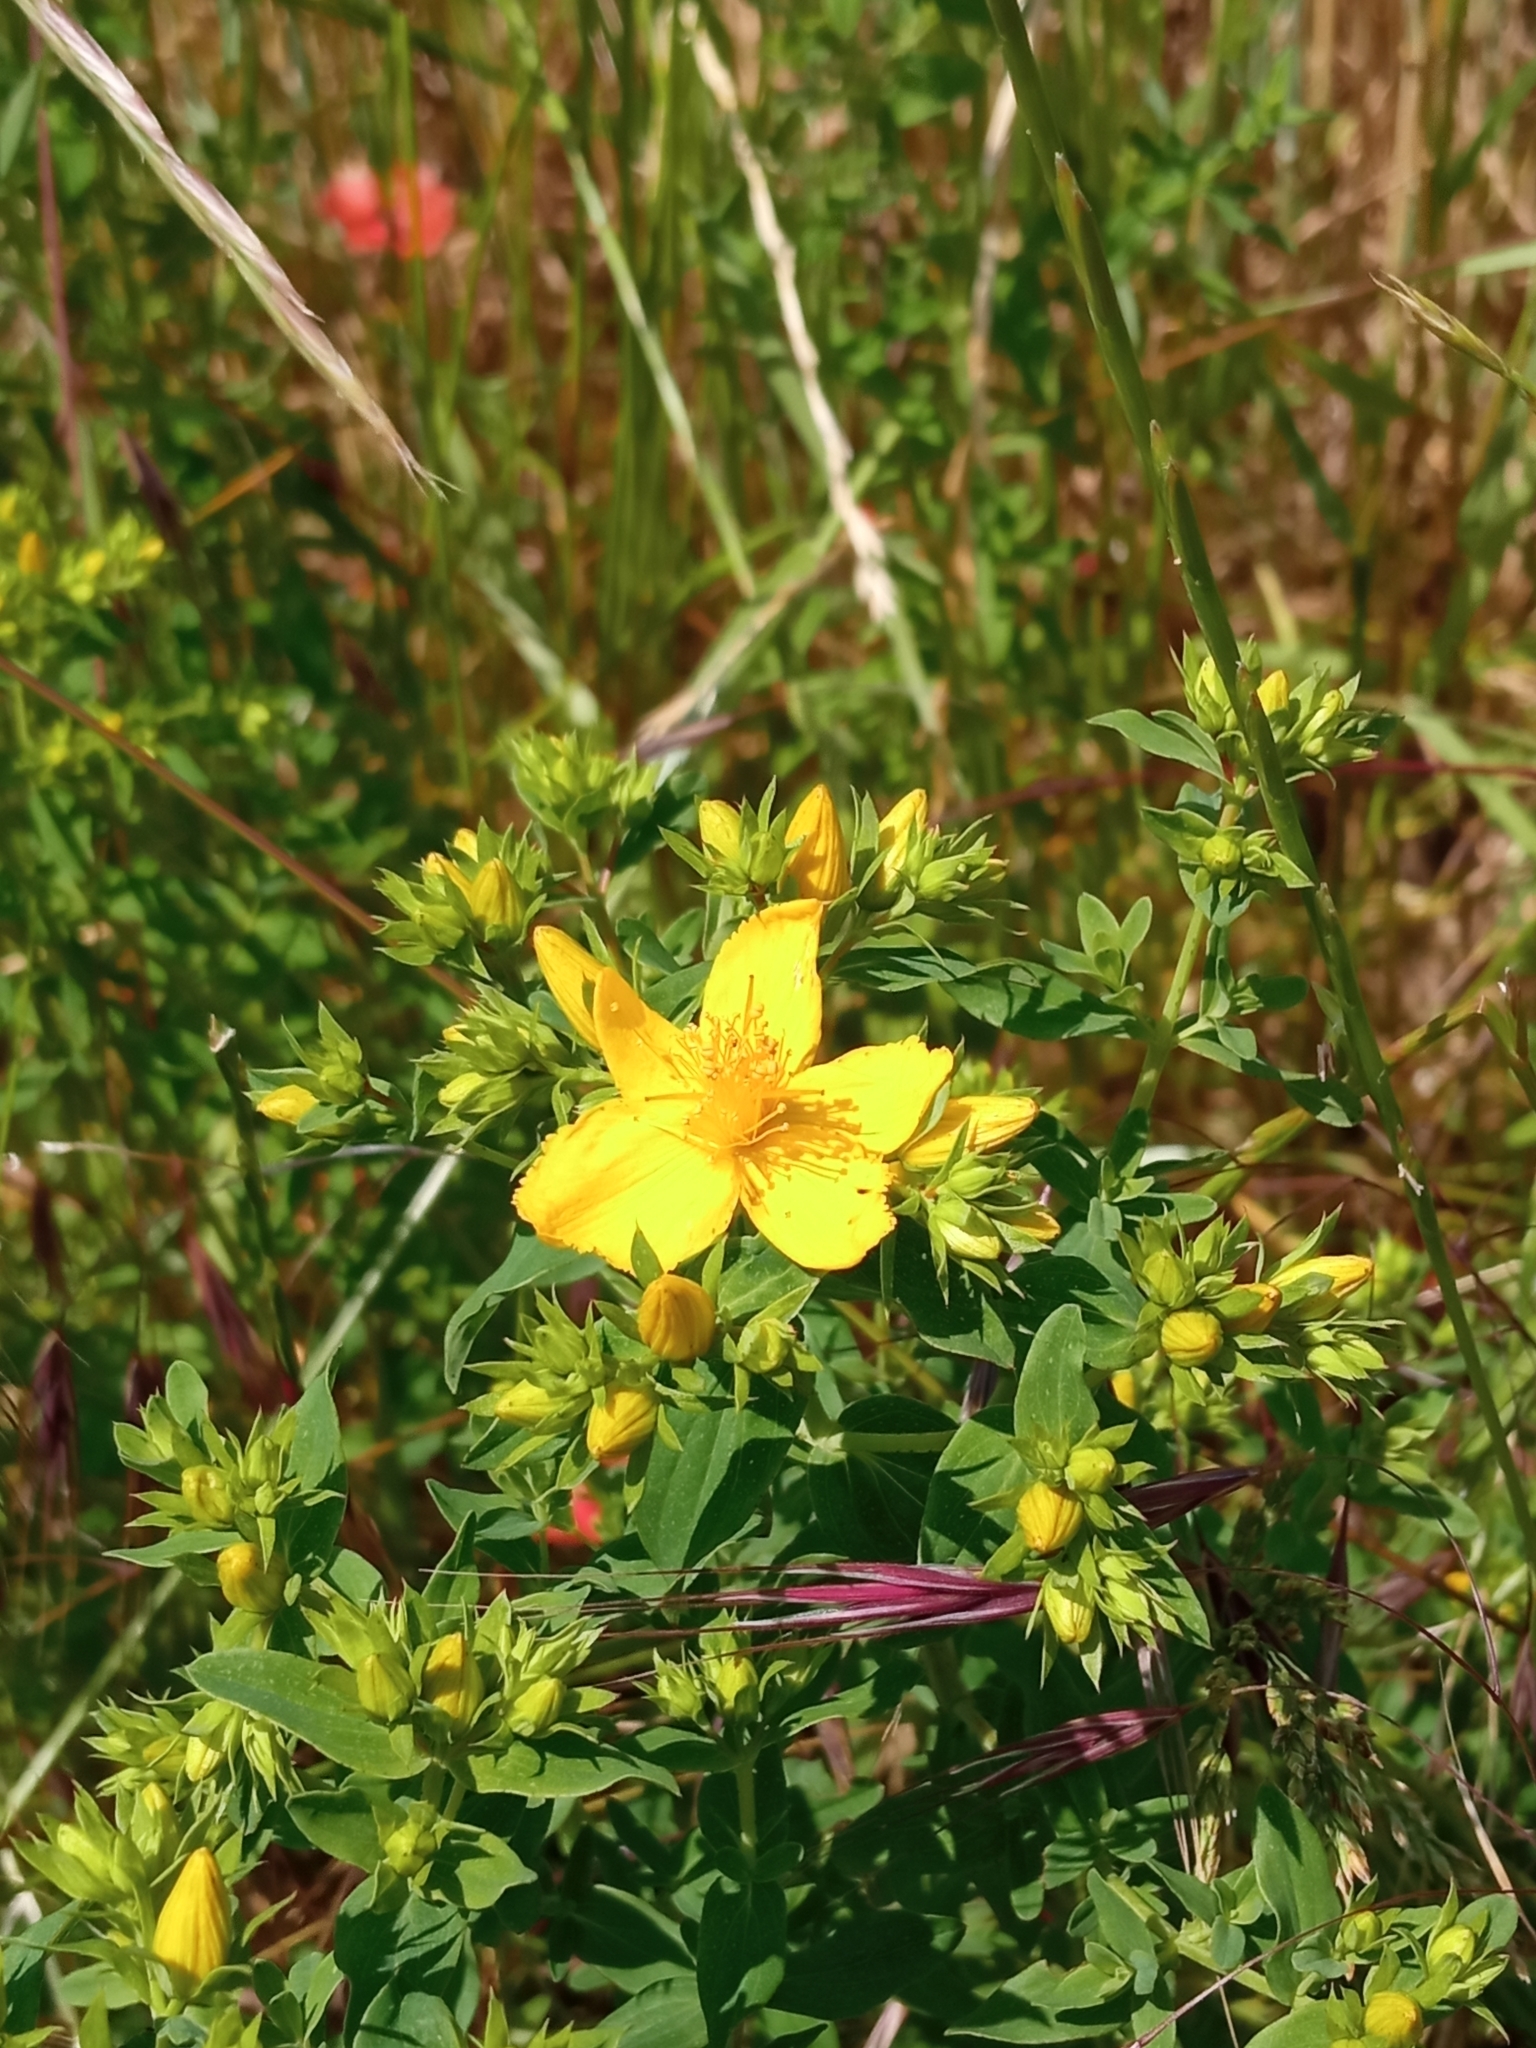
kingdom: Plantae
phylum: Tracheophyta
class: Magnoliopsida
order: Malpighiales
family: Hypericaceae
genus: Hypericum
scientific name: Hypericum perforatum
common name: Common st. johnswort
